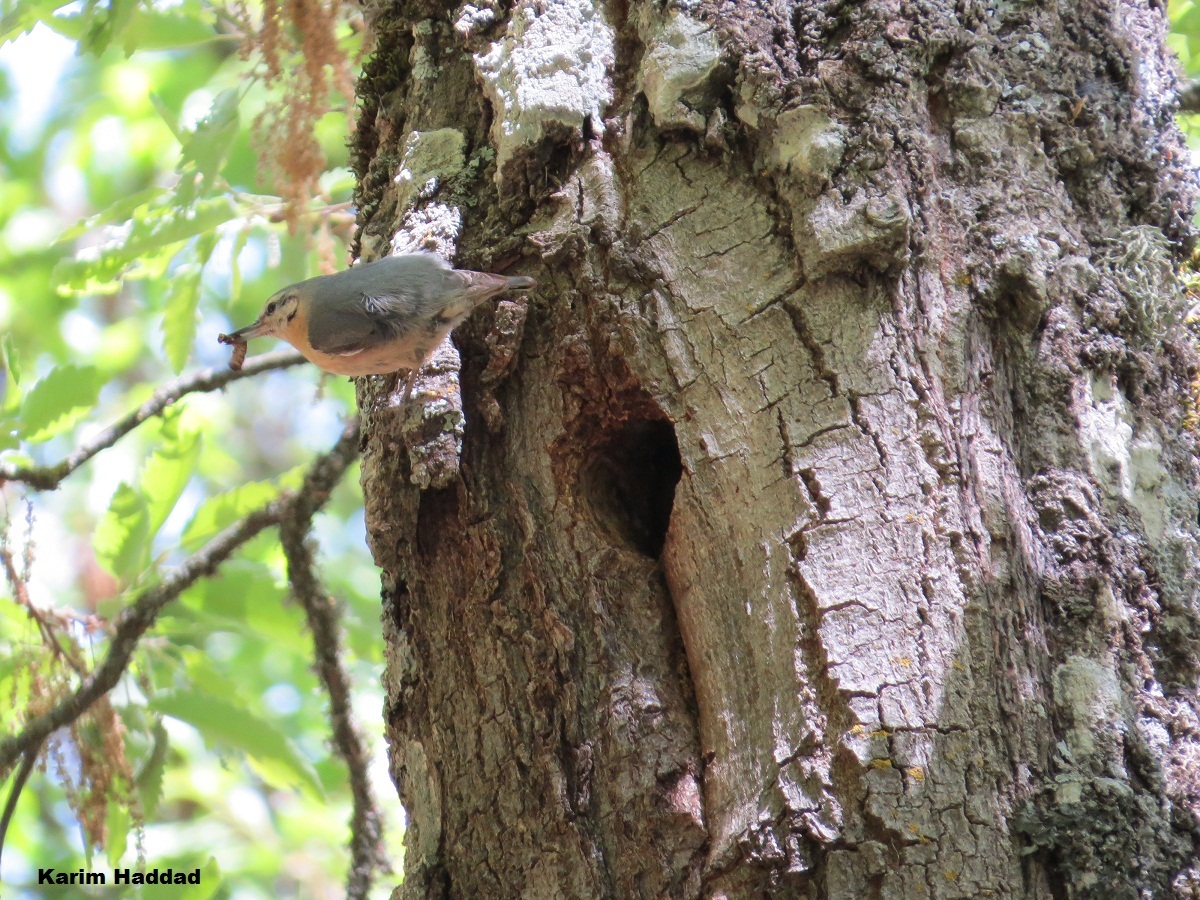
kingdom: Animalia
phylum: Chordata
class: Aves
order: Passeriformes
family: Sittidae
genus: Sitta
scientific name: Sitta ledanti
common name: Algerian nuthatch
